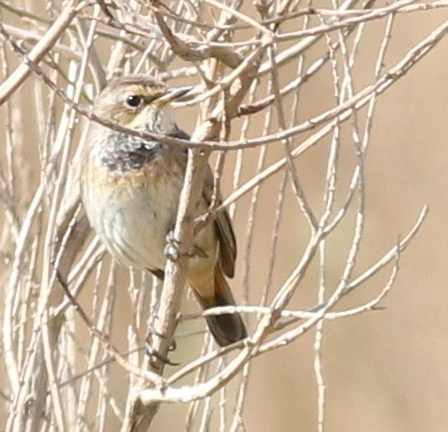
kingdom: Animalia
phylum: Chordata
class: Aves
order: Passeriformes
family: Muscicapidae
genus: Luscinia
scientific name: Luscinia svecica
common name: Bluethroat
